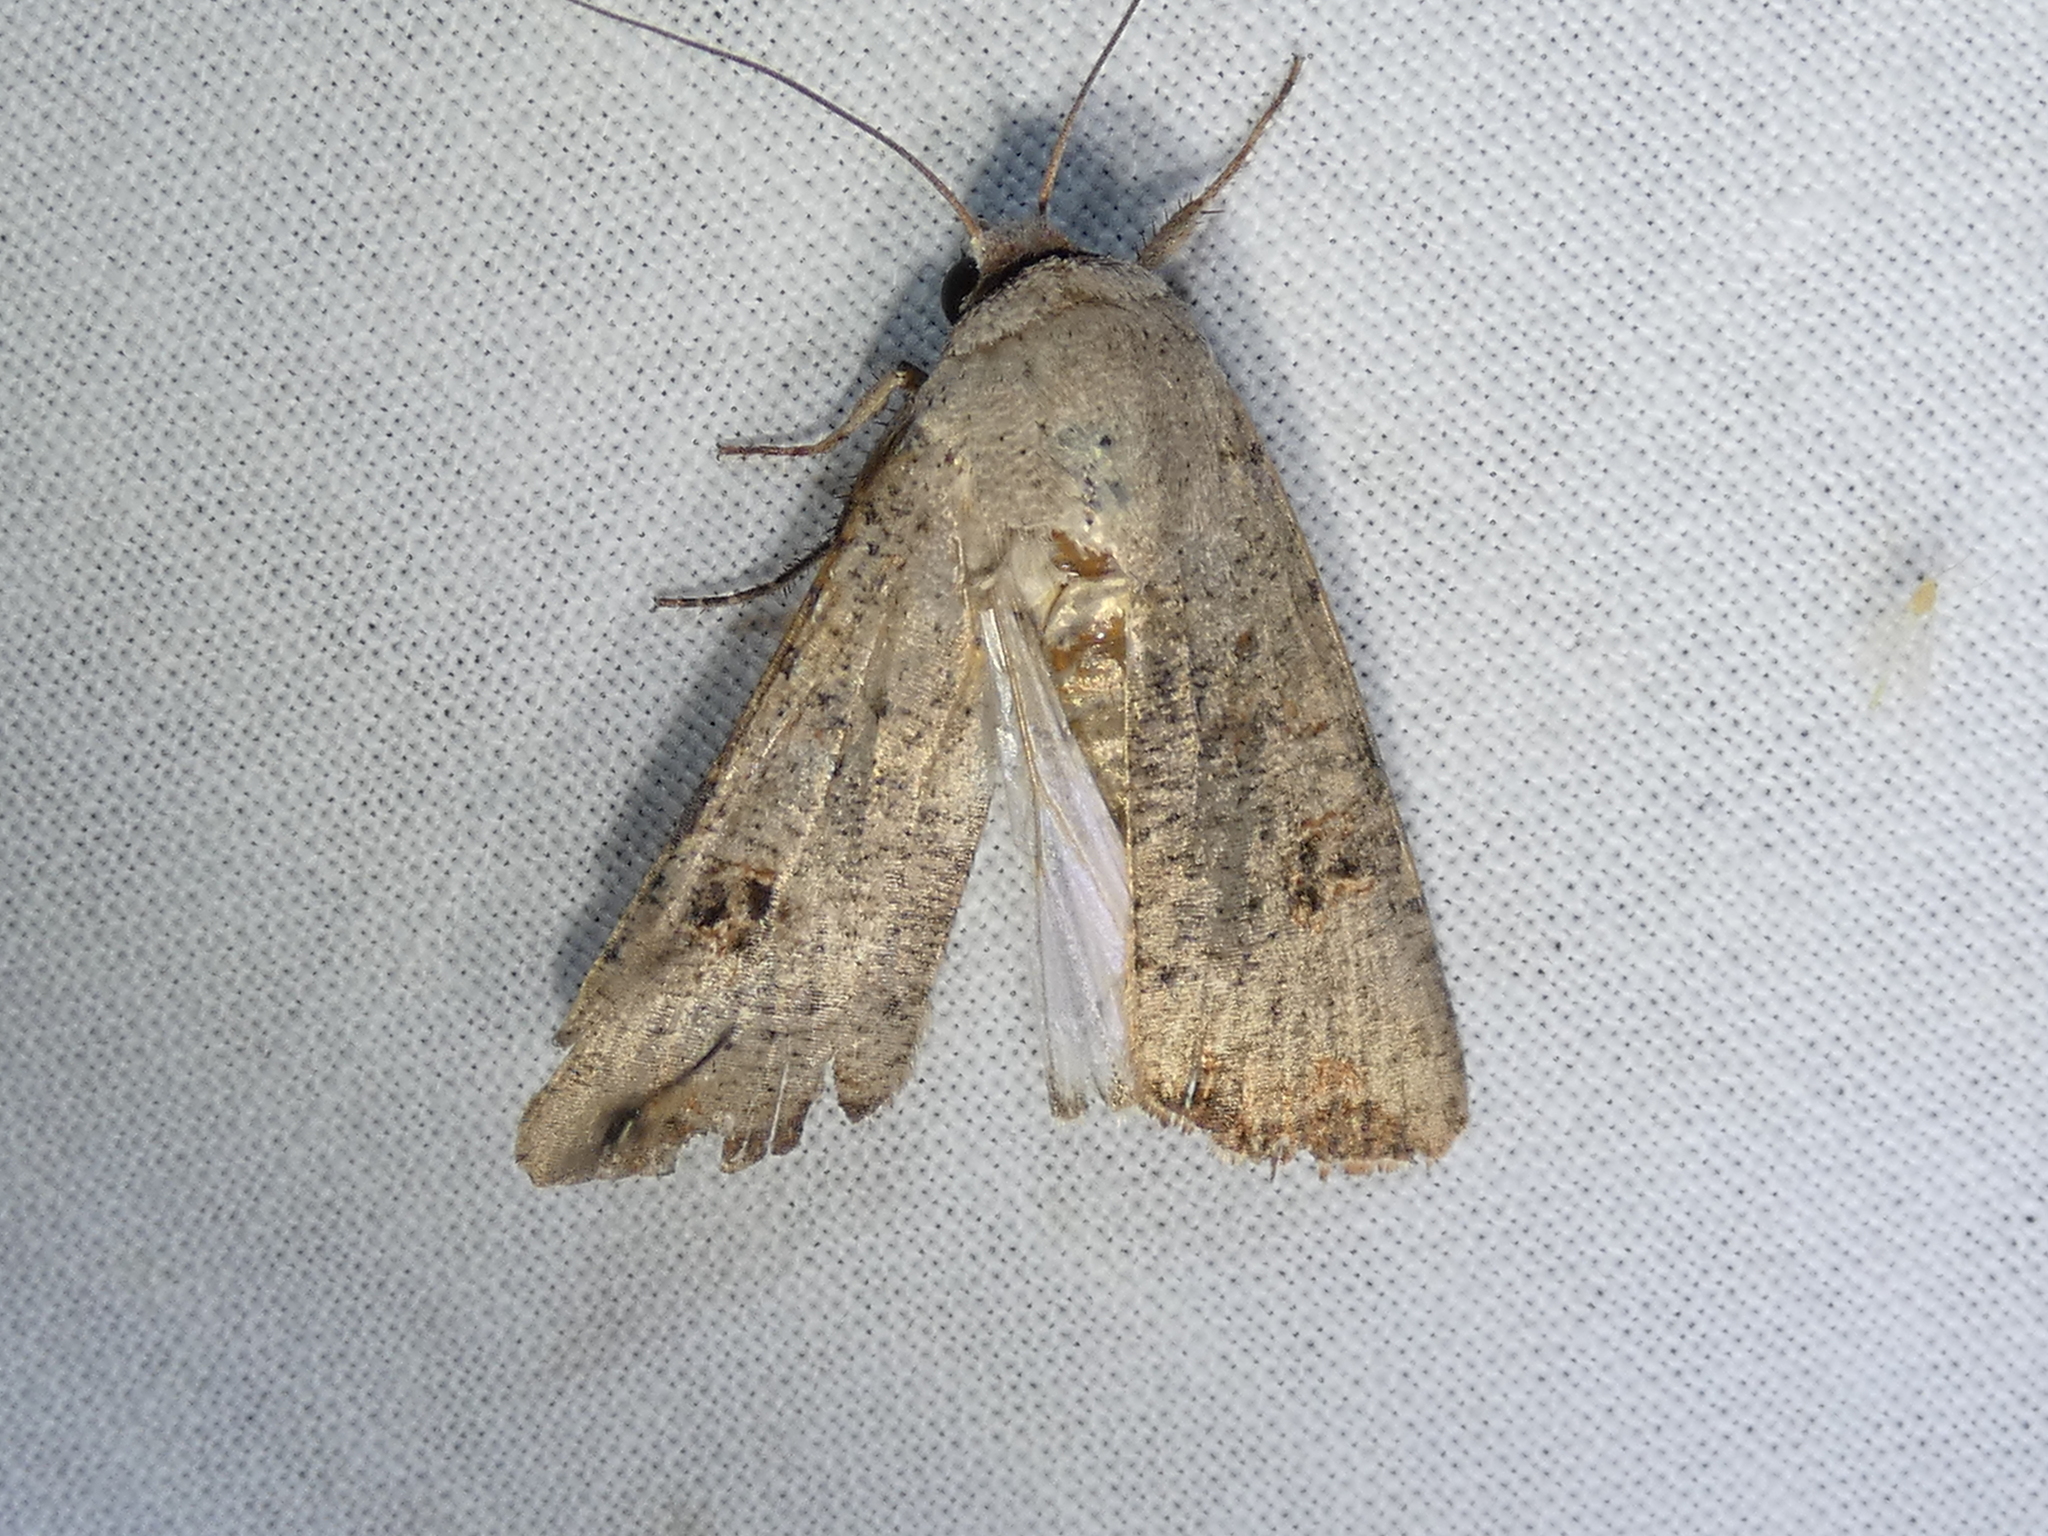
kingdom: Animalia
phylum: Arthropoda
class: Insecta
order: Lepidoptera
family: Noctuidae
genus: Anicla
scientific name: Anicla infecta
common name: Green cutworm
